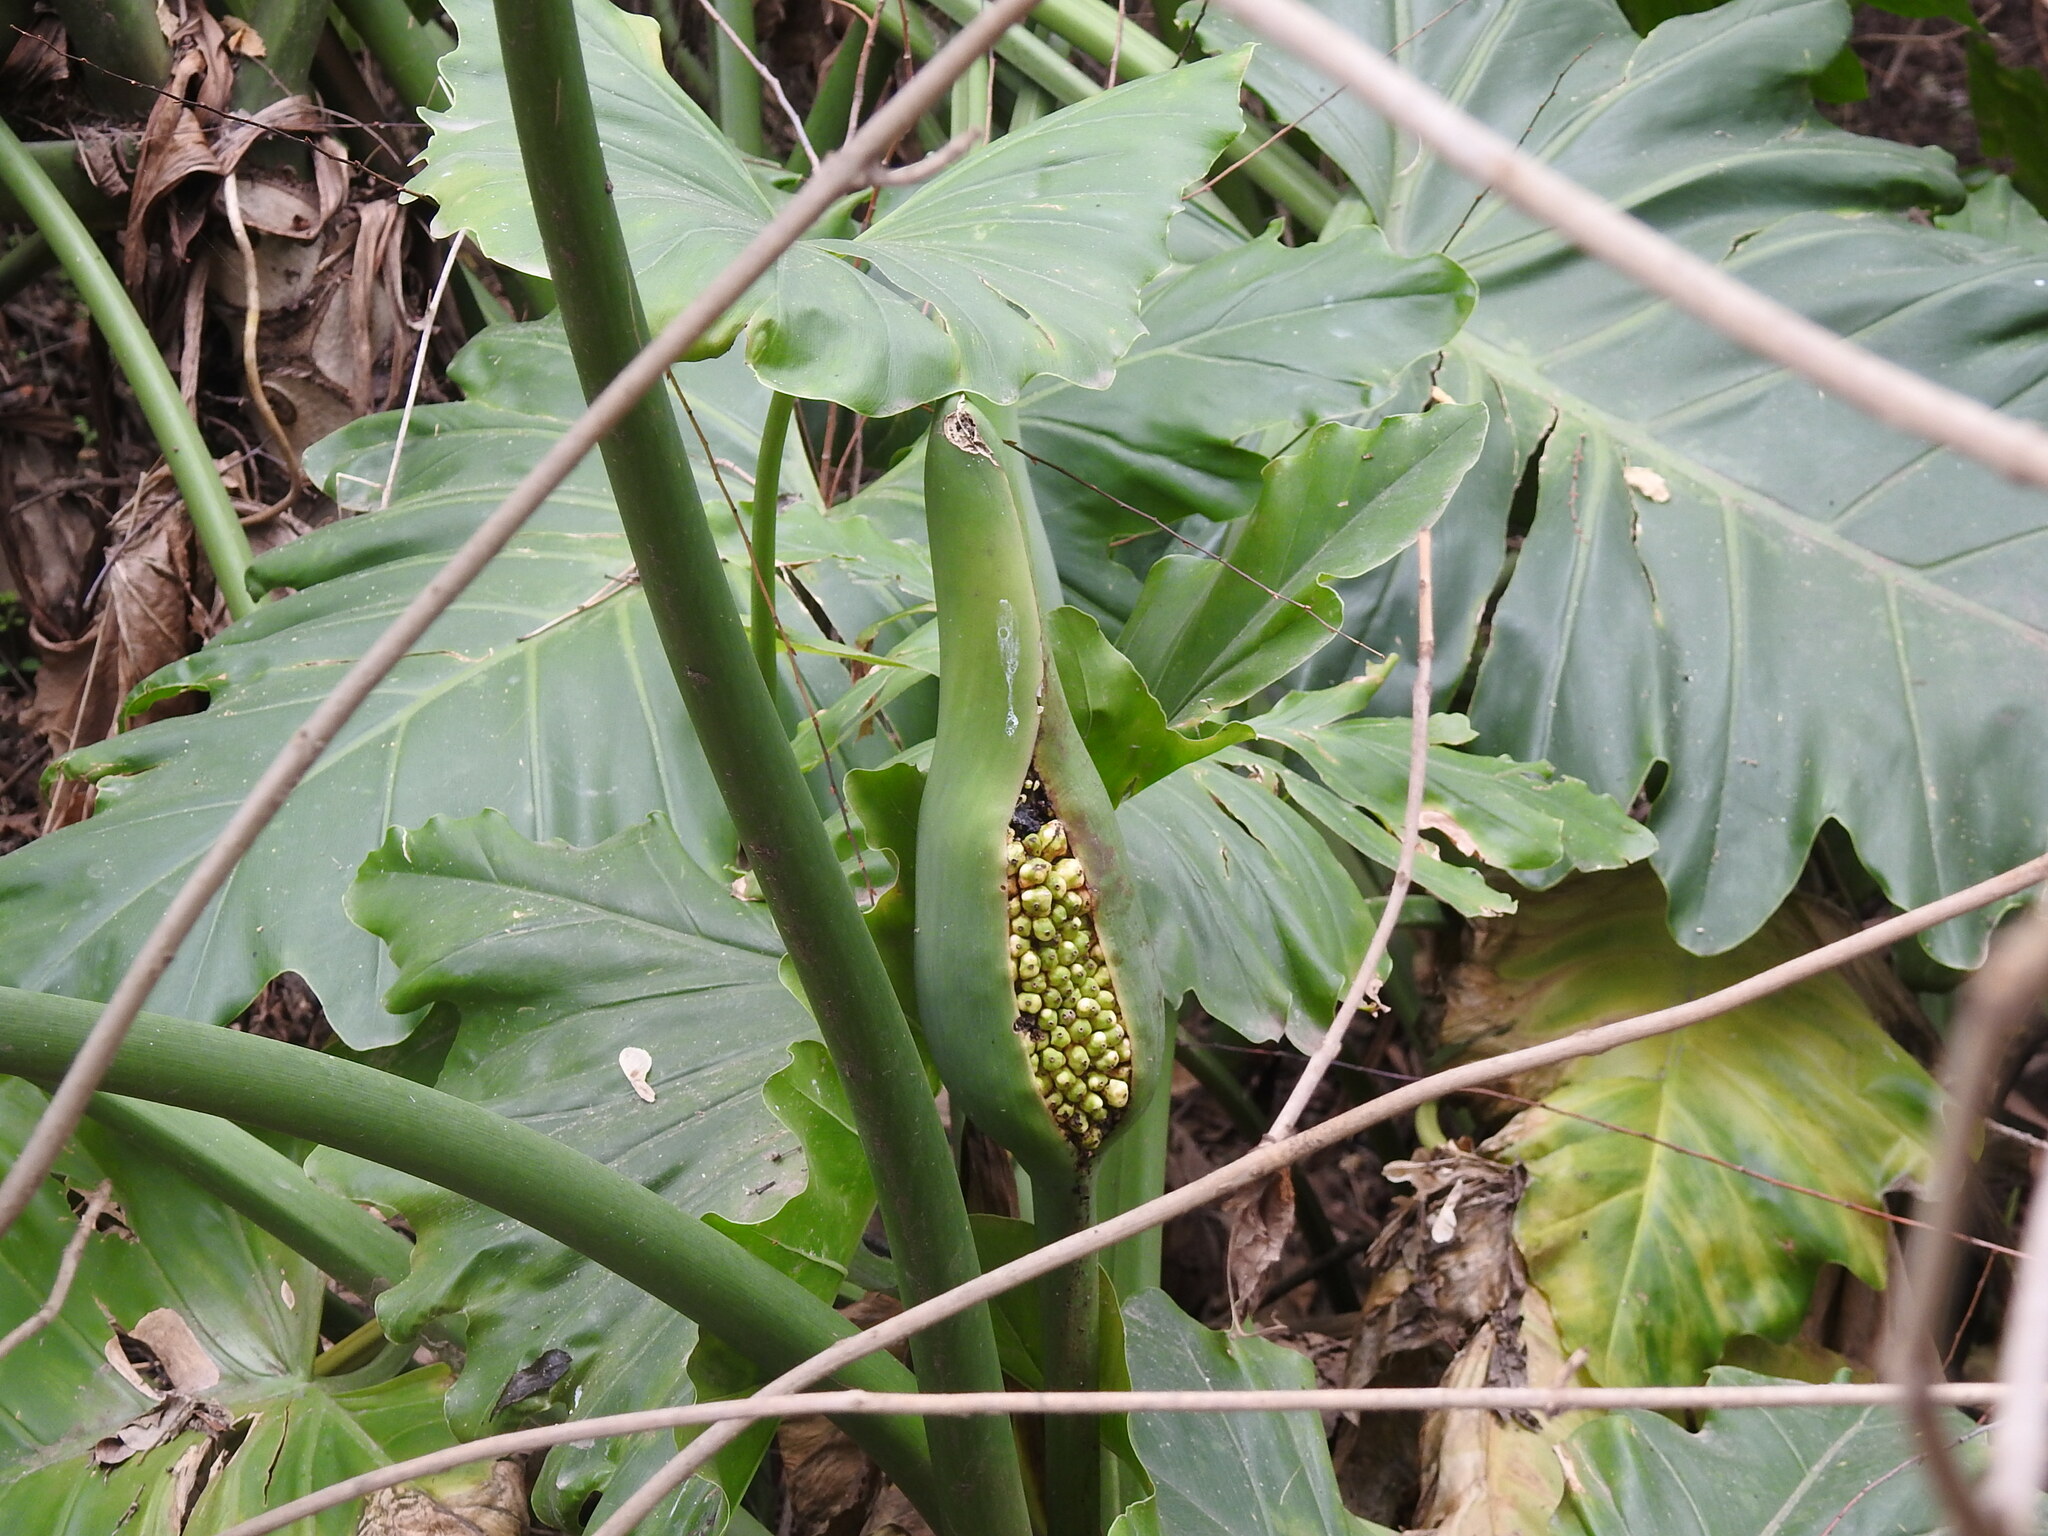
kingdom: Plantae
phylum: Tracheophyta
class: Liliopsida
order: Alismatales
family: Araceae
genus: Thaumatophyllum
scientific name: Thaumatophyllum undulatum
